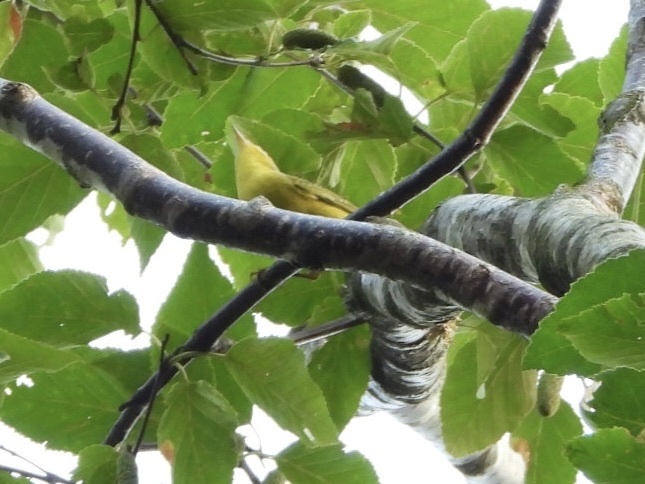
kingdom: Animalia
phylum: Chordata
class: Aves
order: Passeriformes
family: Parulidae
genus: Setophaga
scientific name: Setophaga petechia
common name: Yellow warbler
